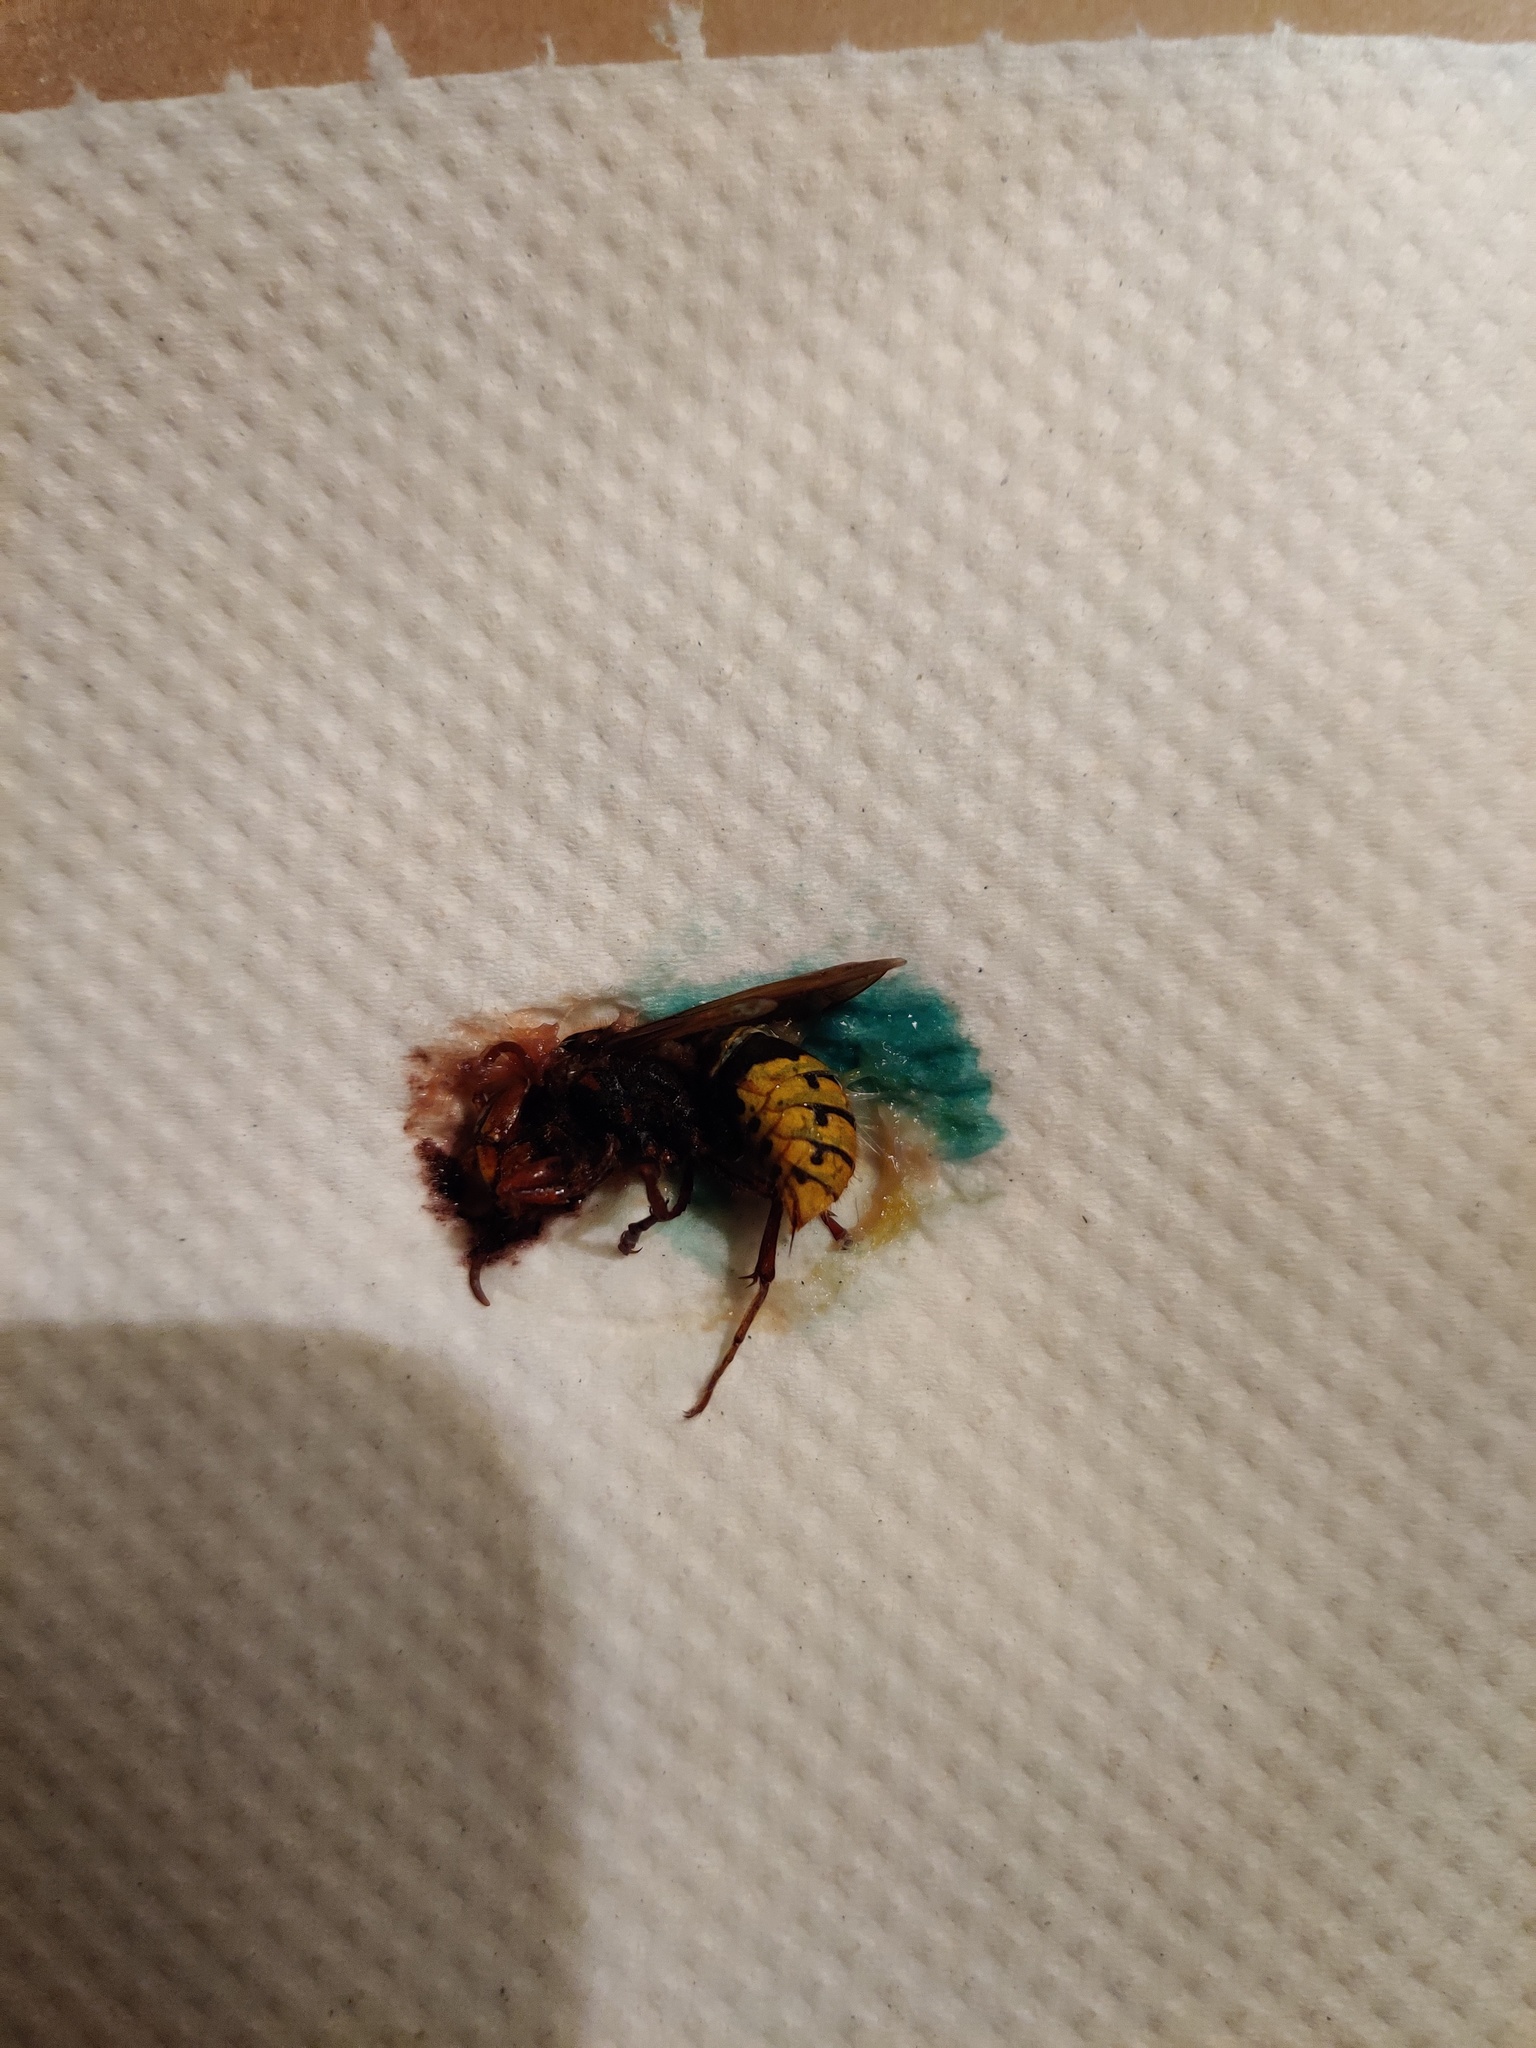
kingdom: Animalia
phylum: Arthropoda
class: Insecta
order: Hymenoptera
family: Vespidae
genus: Vespa
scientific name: Vespa crabro
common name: Hornet
